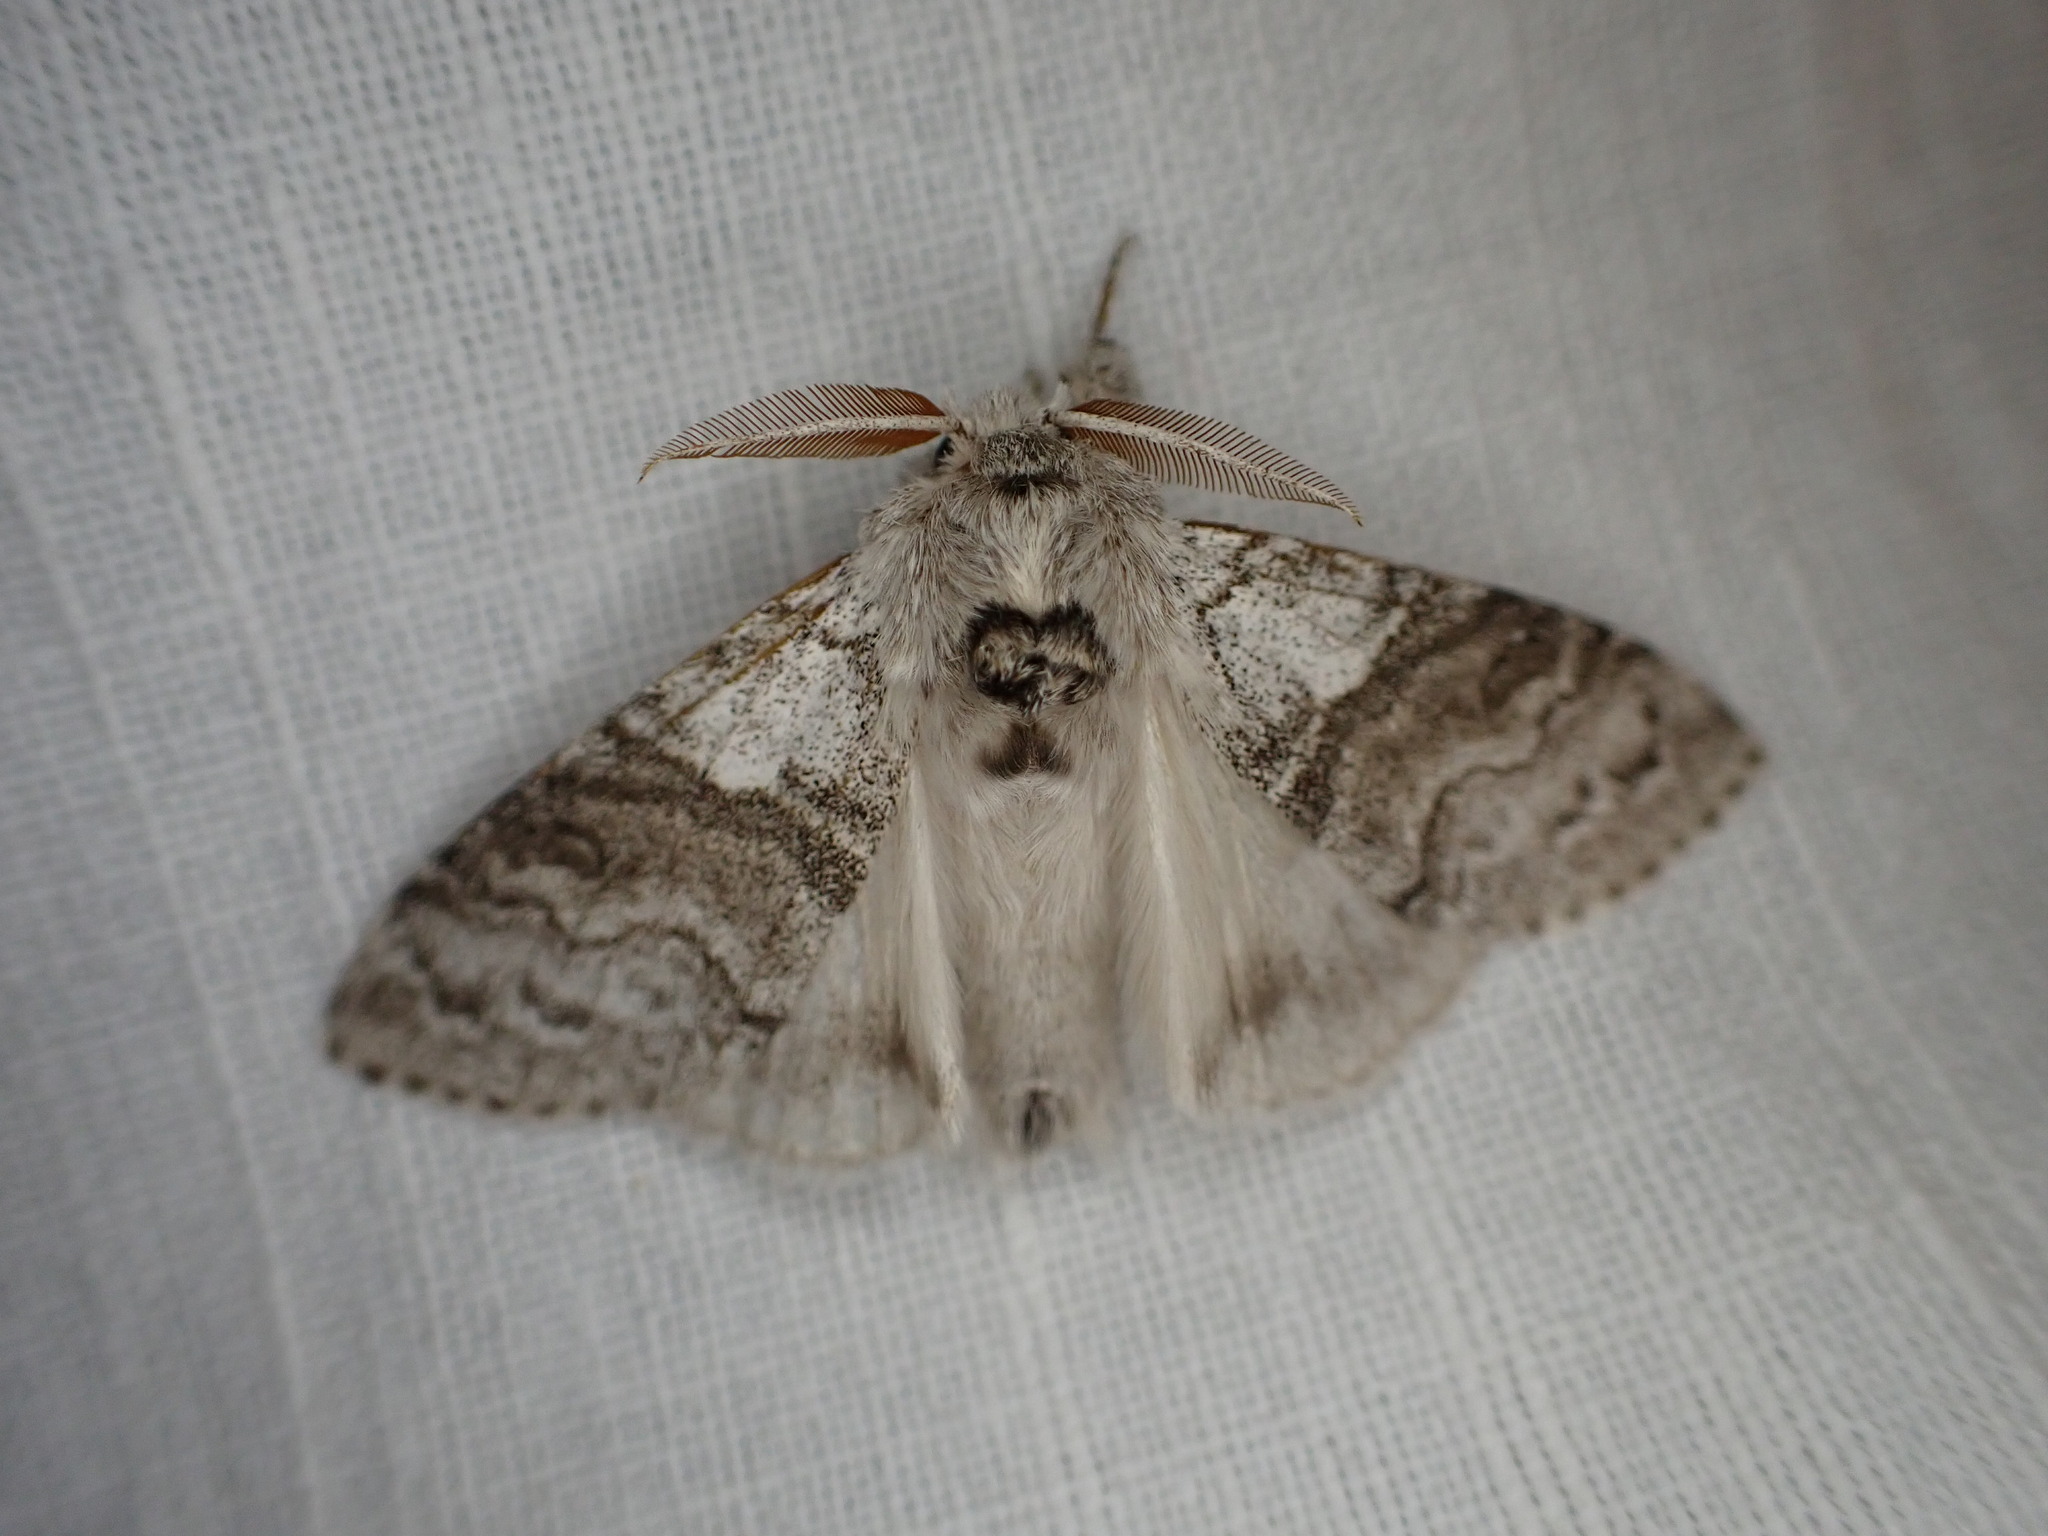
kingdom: Animalia
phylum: Arthropoda
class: Insecta
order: Lepidoptera
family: Erebidae
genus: Calliteara
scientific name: Calliteara pudibunda
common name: Pale tussock
